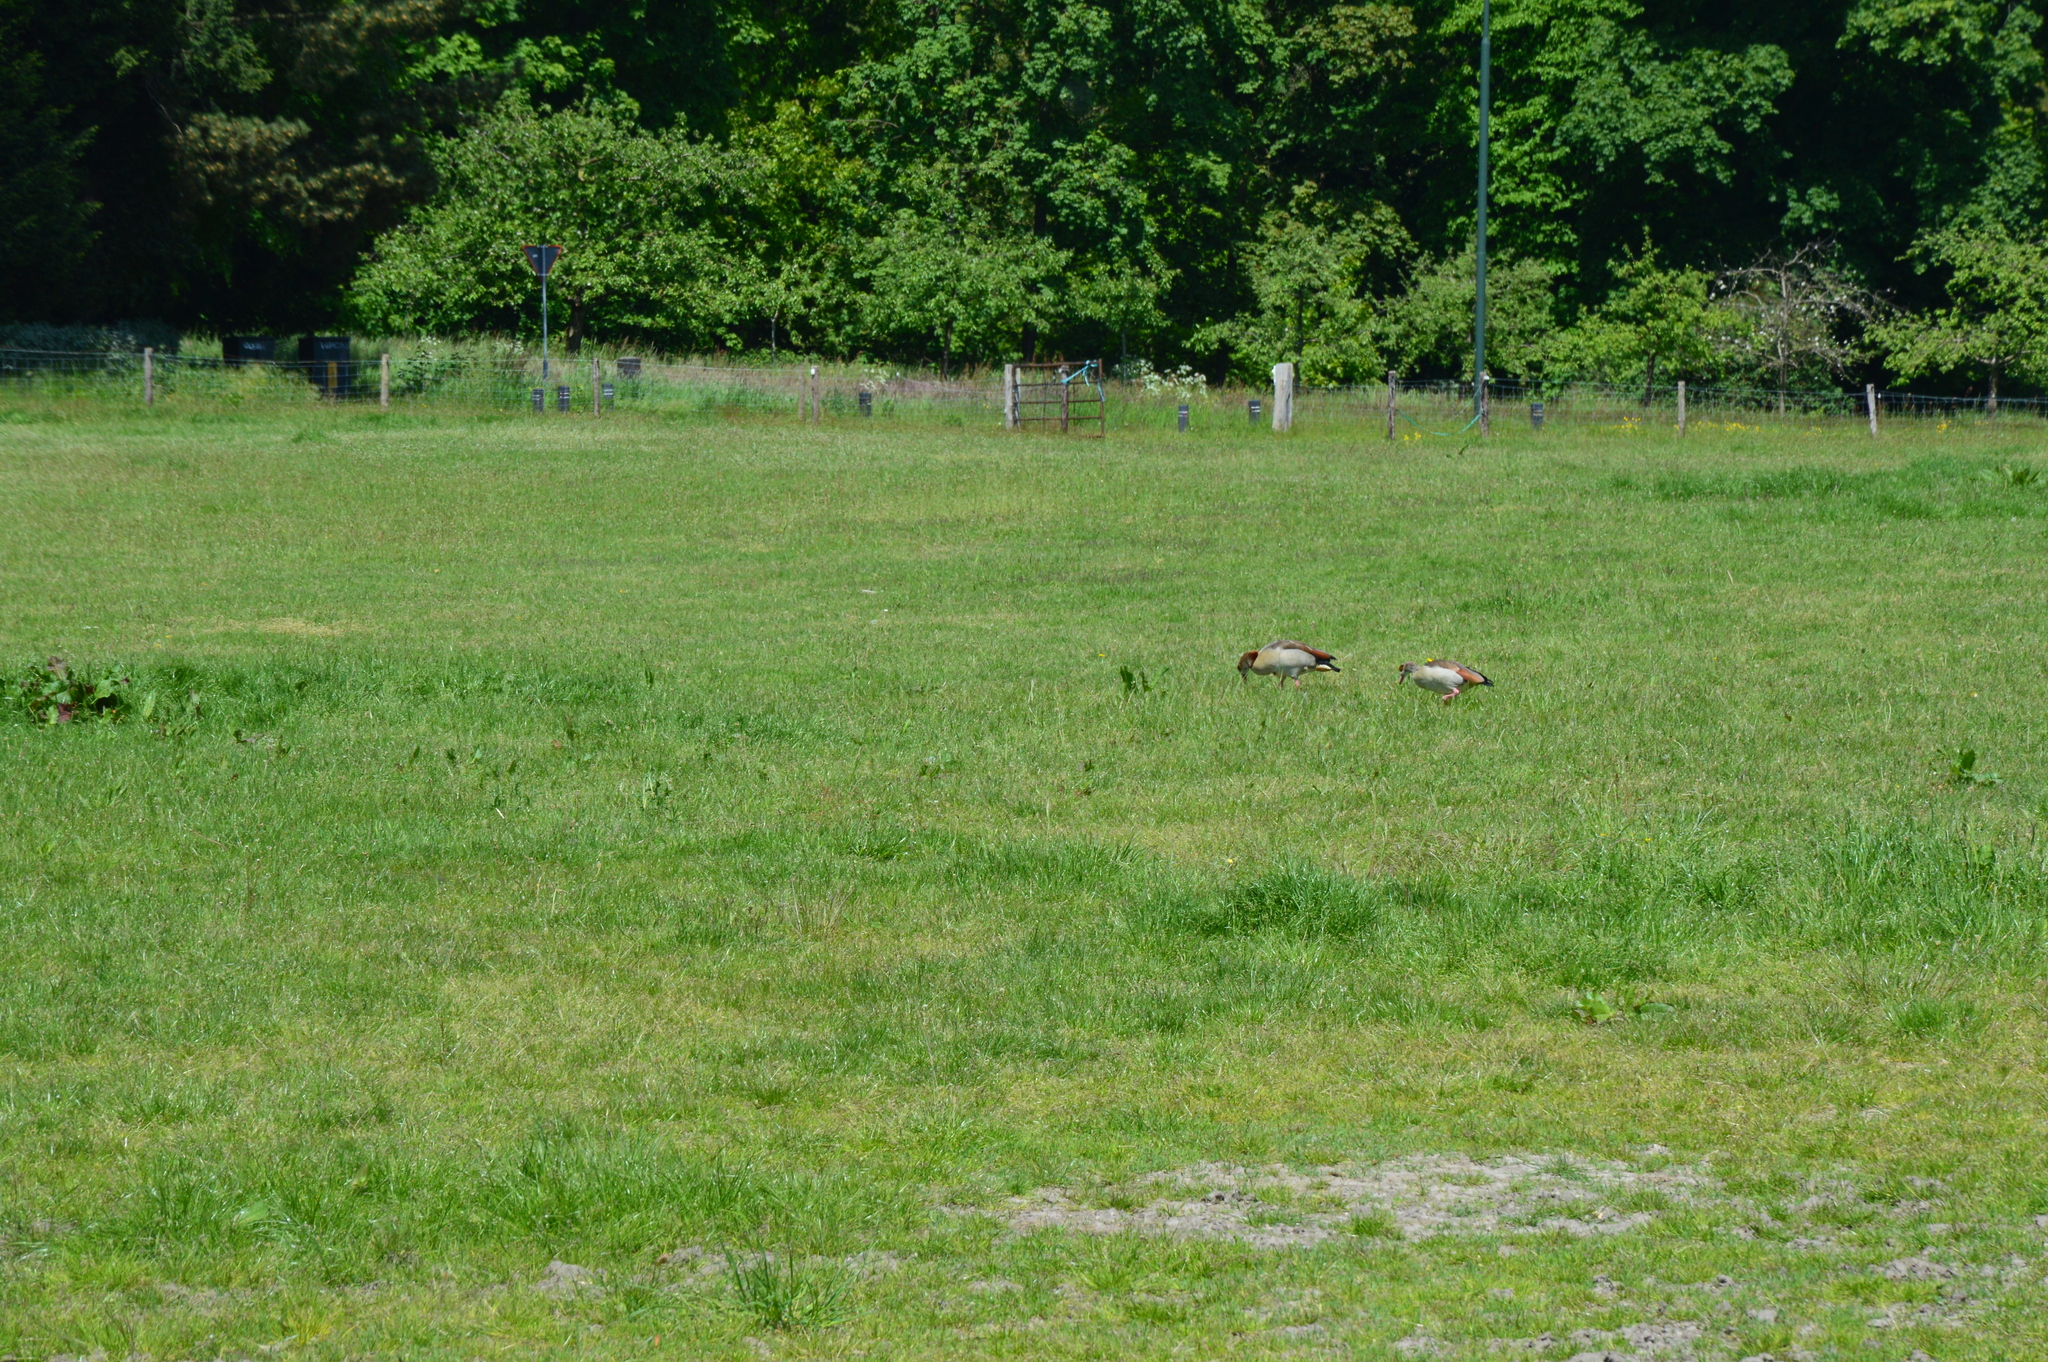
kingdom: Animalia
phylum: Chordata
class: Aves
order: Anseriformes
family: Anatidae
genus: Alopochen
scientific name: Alopochen aegyptiaca
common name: Egyptian goose
